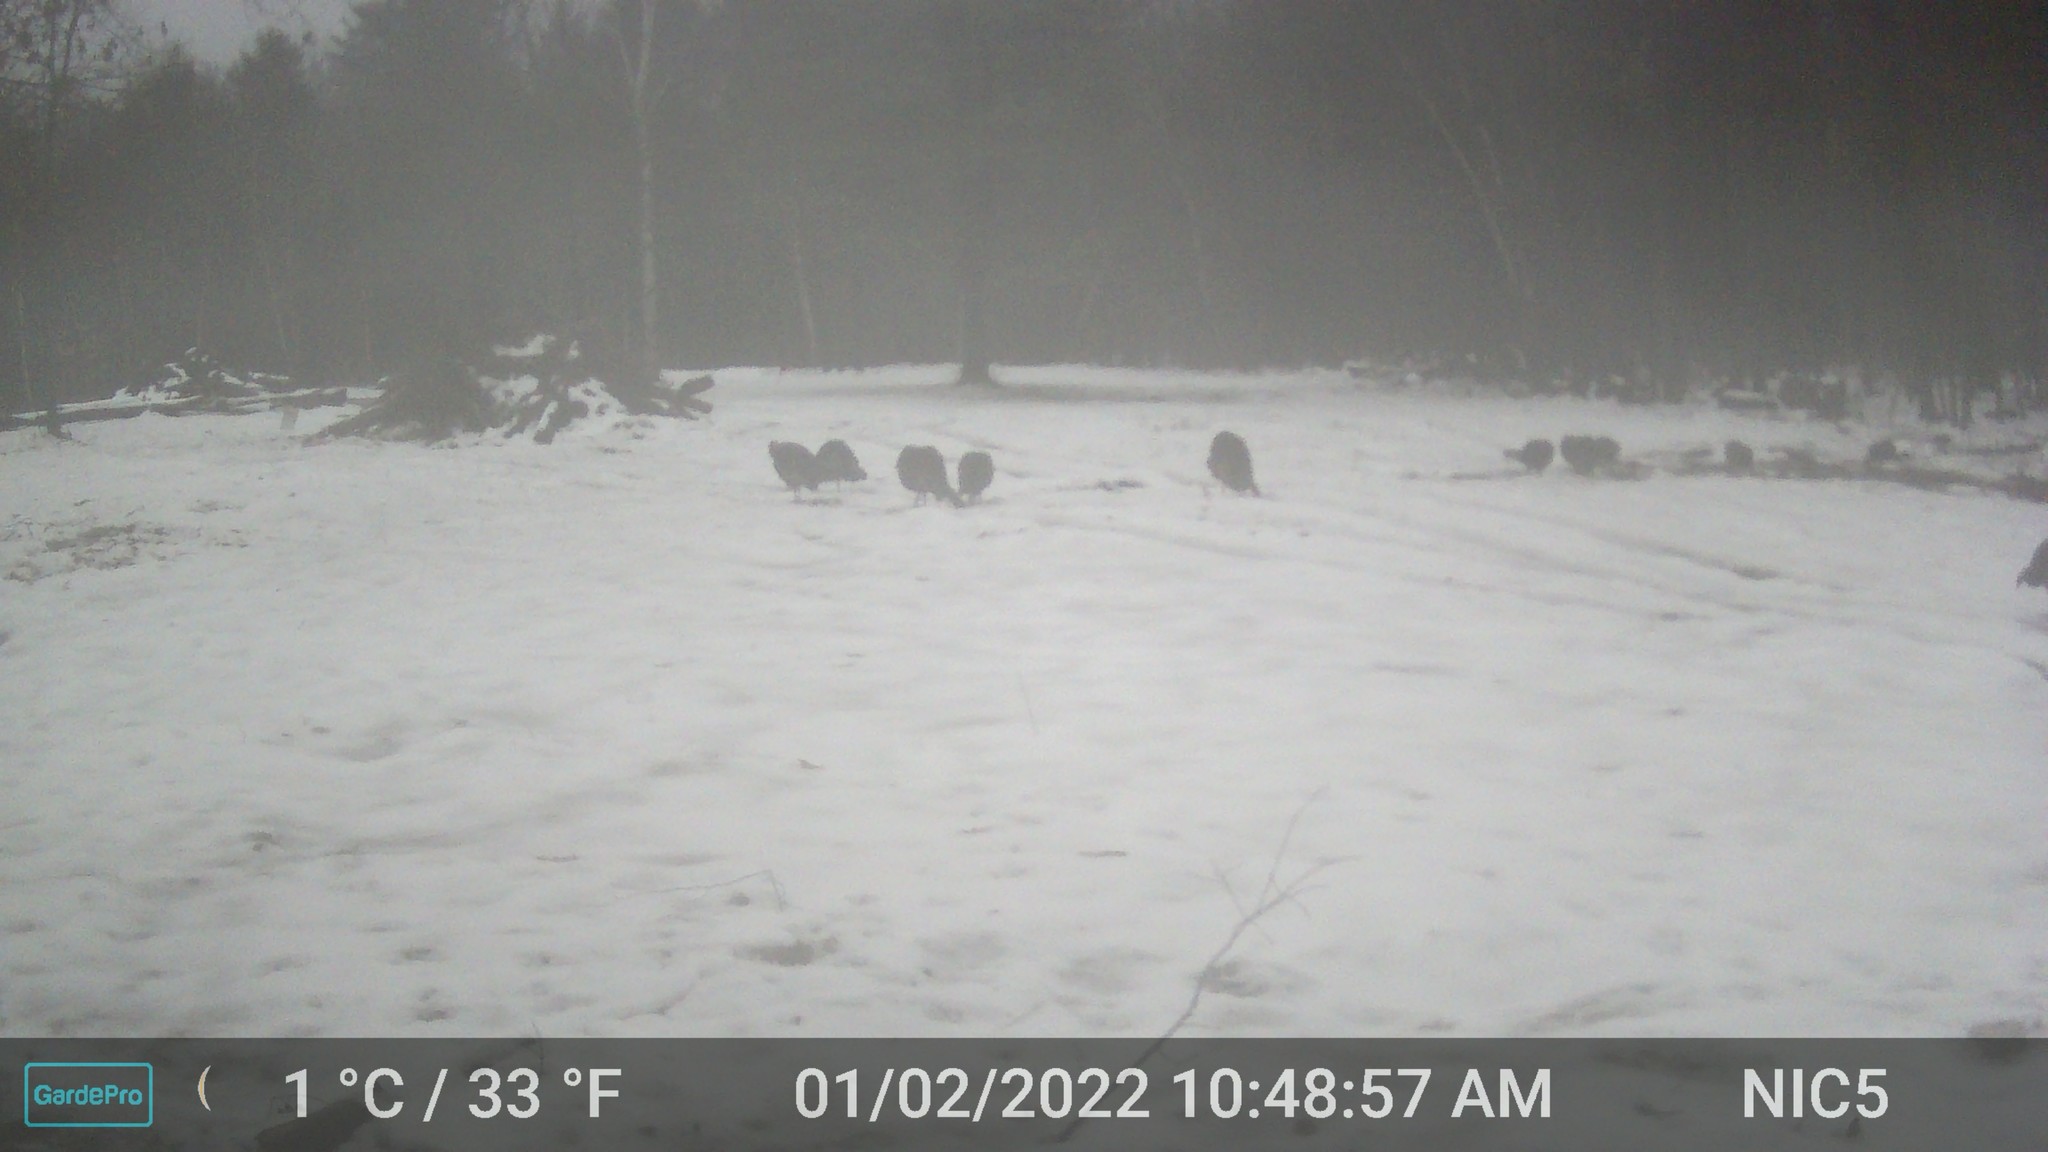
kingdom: Animalia
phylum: Chordata
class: Aves
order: Galliformes
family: Phasianidae
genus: Meleagris
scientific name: Meleagris gallopavo
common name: Wild turkey
